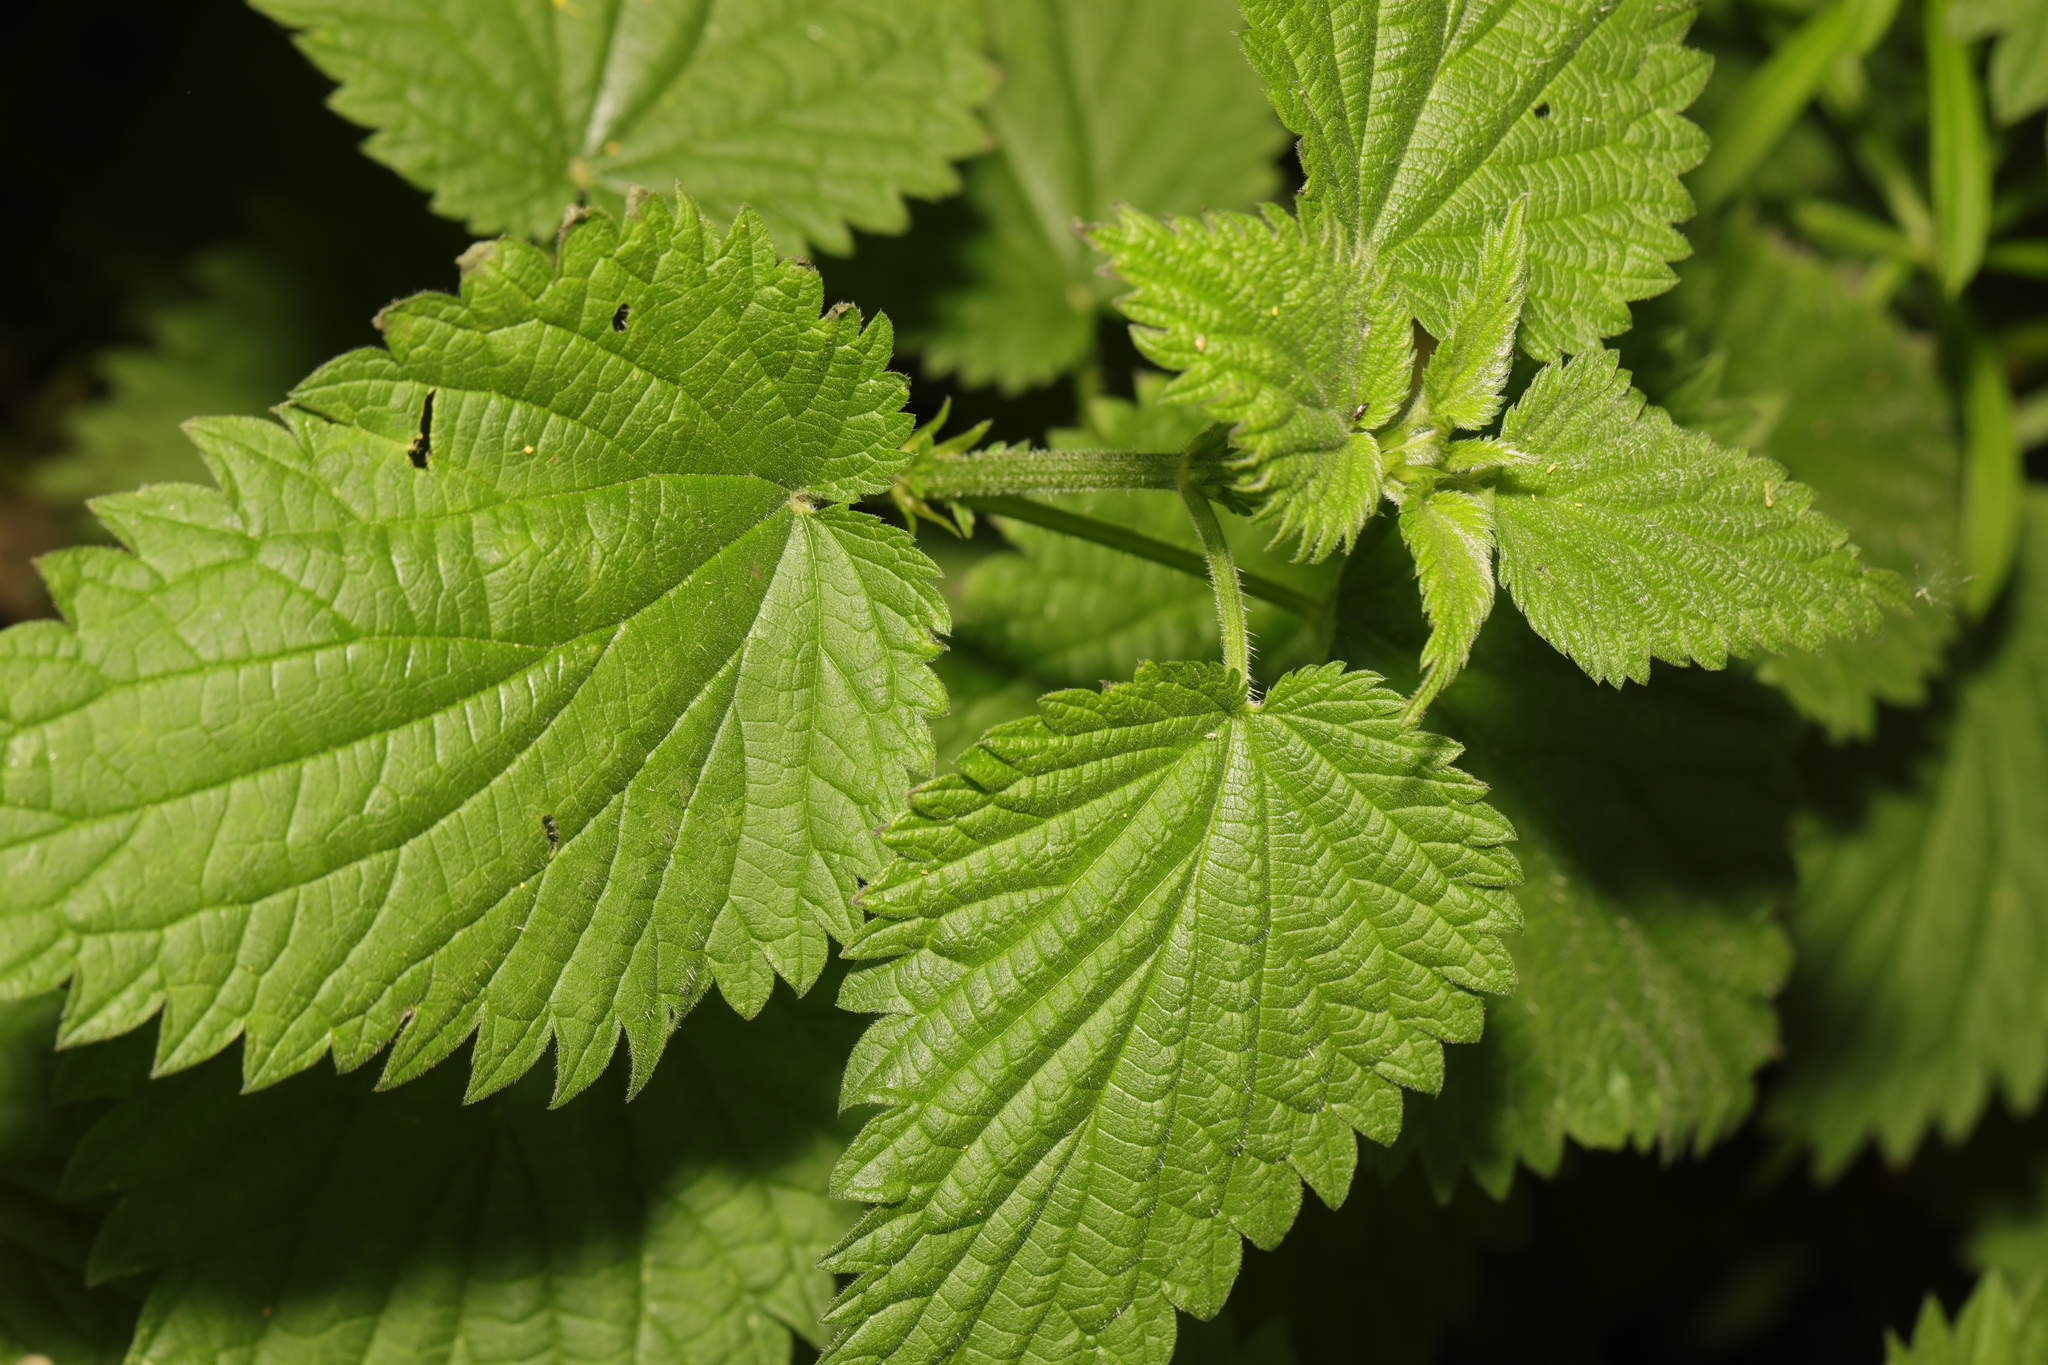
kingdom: Plantae
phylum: Tracheophyta
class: Magnoliopsida
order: Rosales
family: Urticaceae
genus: Urtica
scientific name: Urtica dioica
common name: Common nettle
